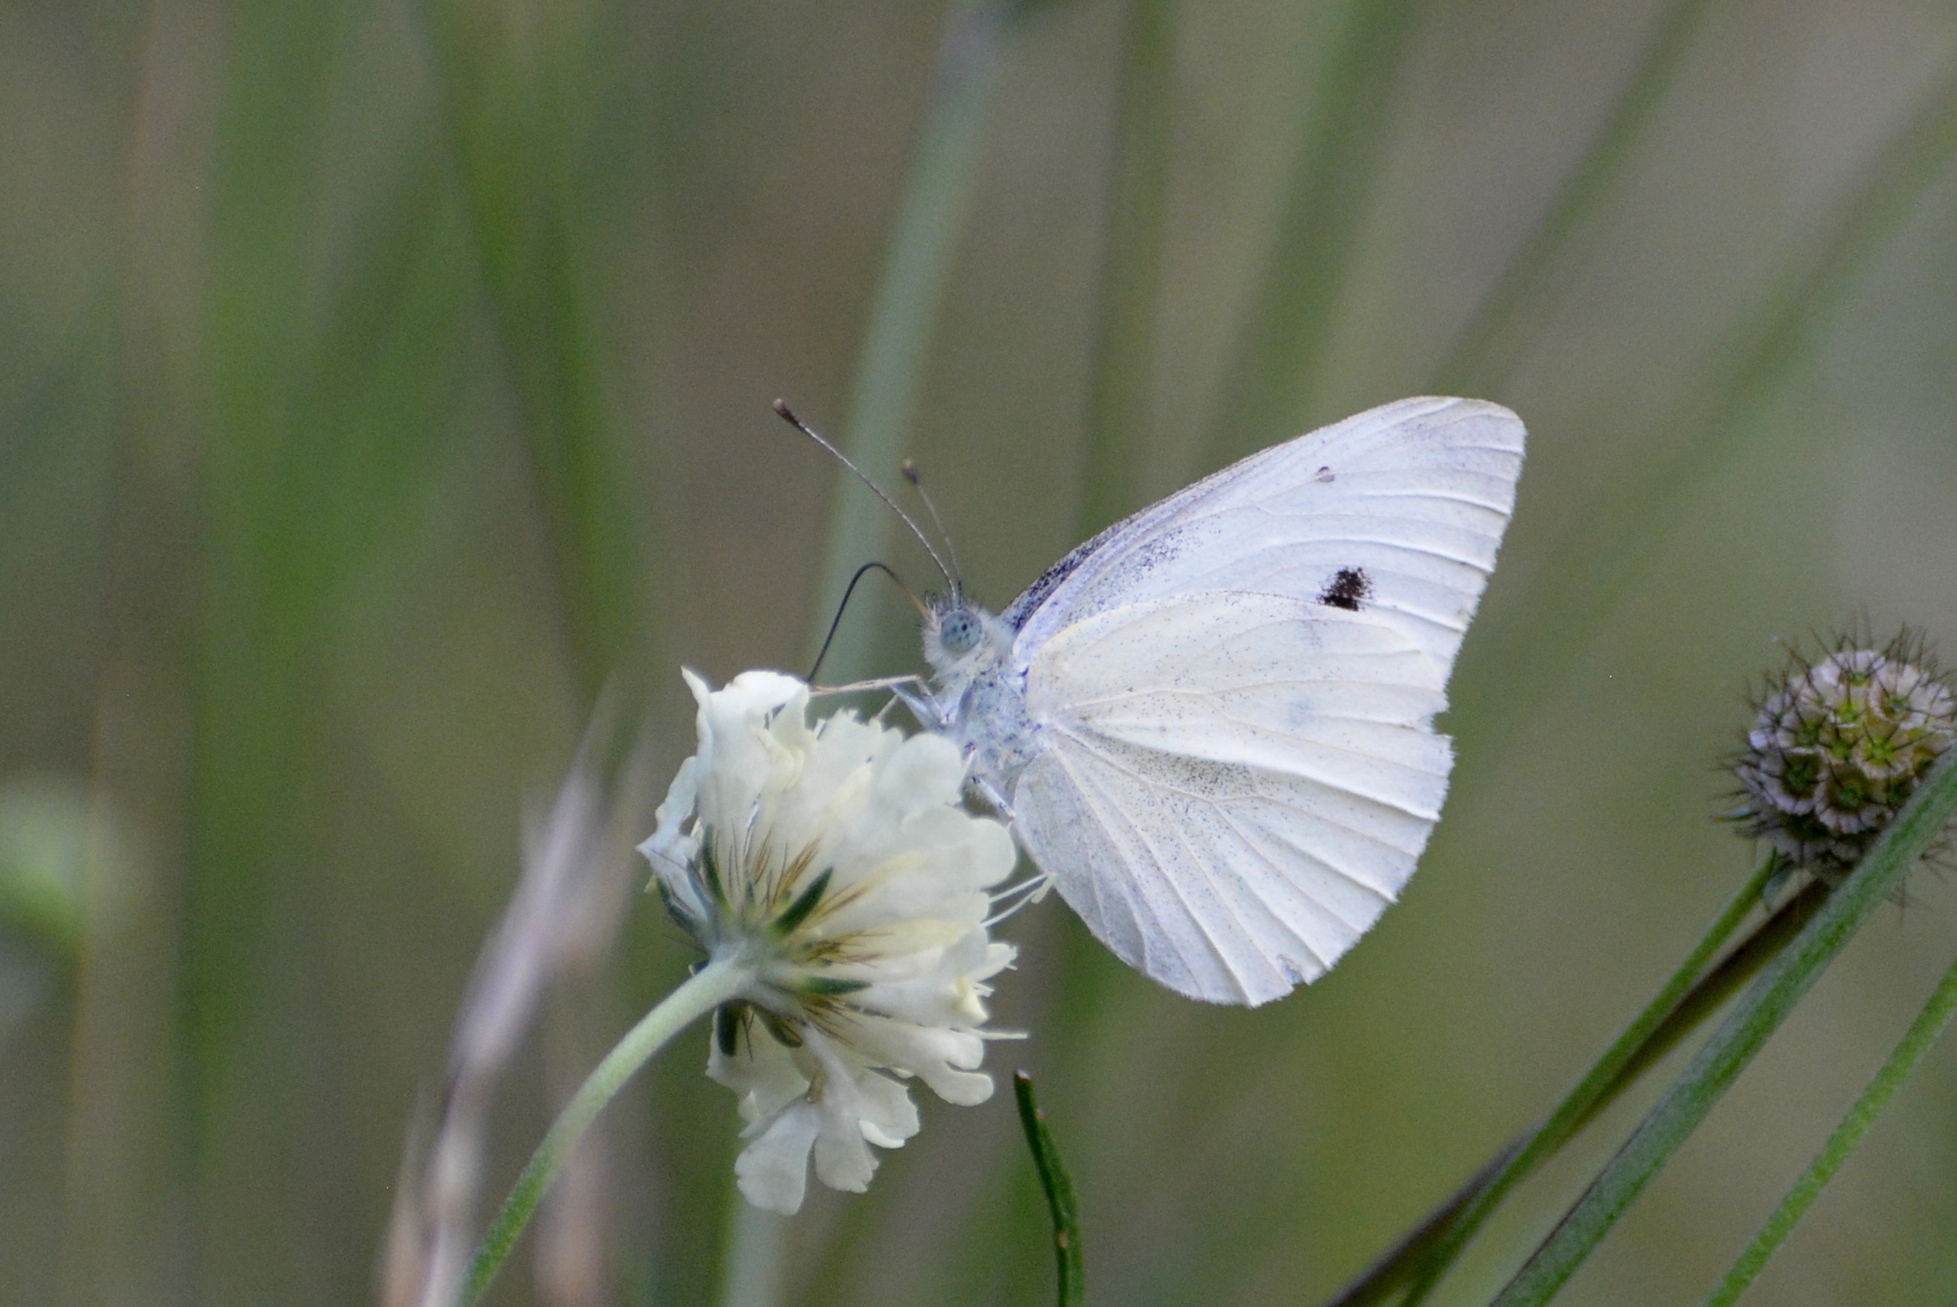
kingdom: Animalia
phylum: Arthropoda
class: Insecta
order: Lepidoptera
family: Pieridae
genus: Pieris
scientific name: Pieris rapae
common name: Small white
